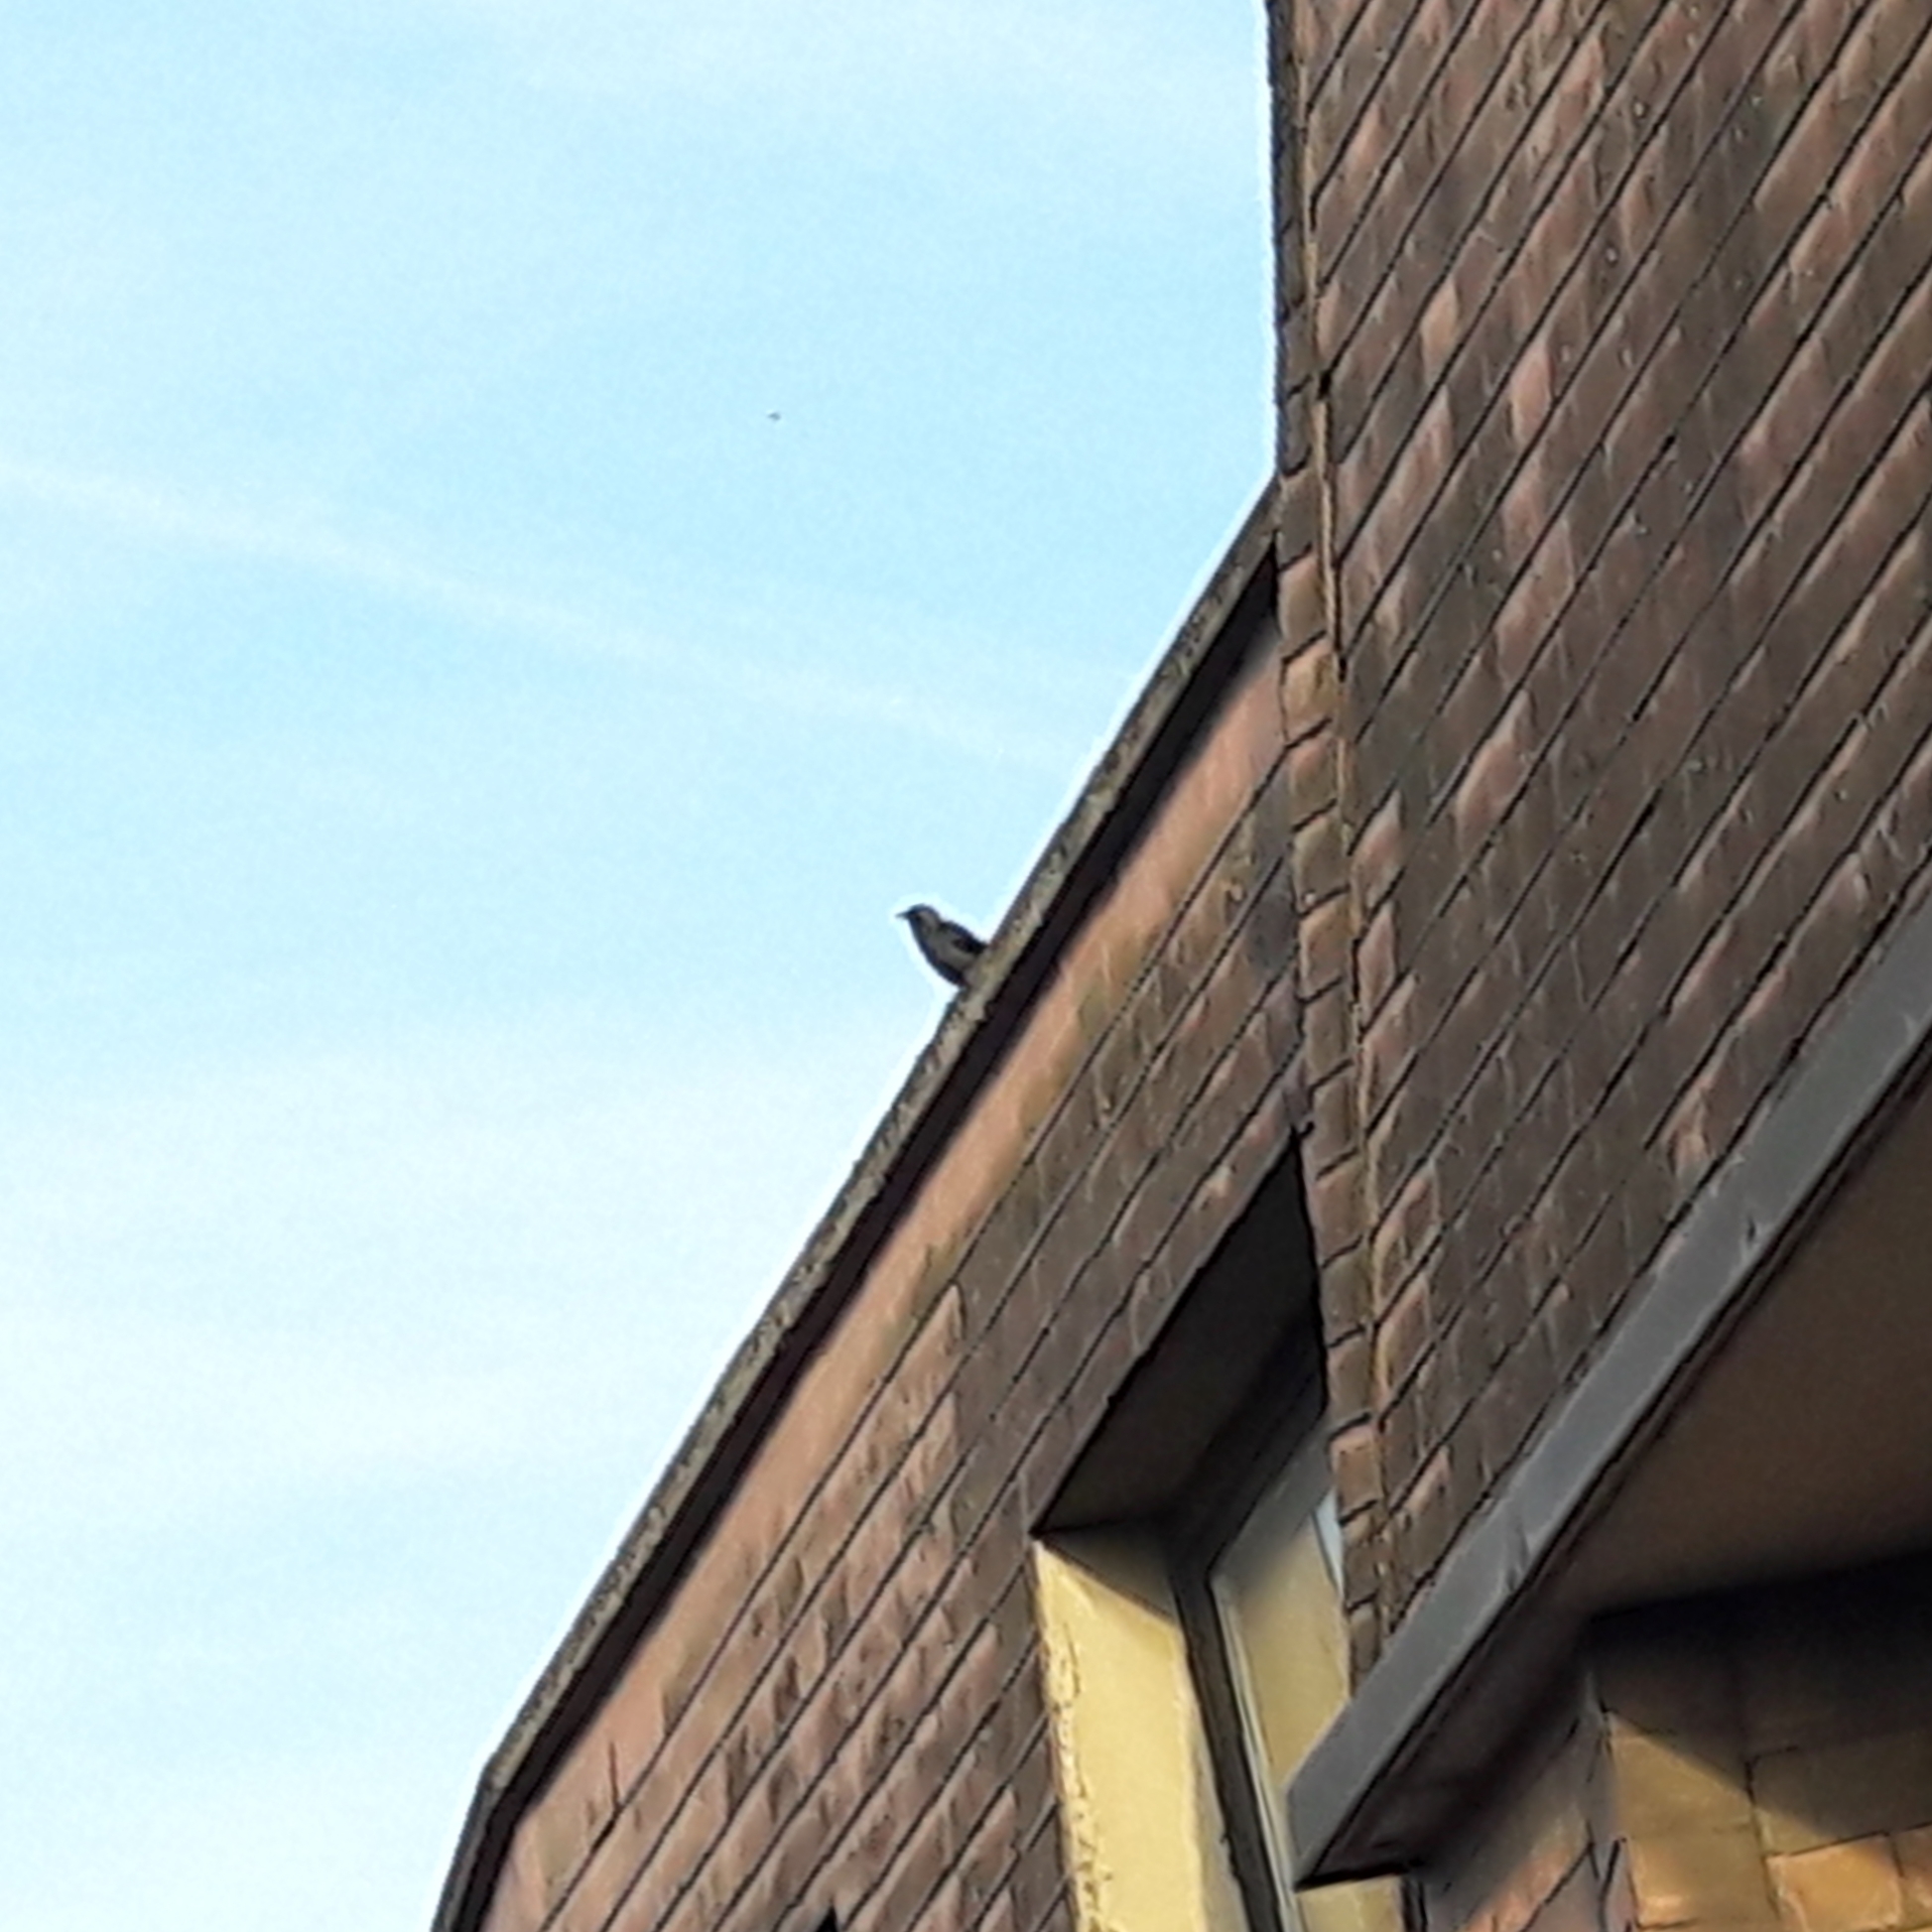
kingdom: Animalia
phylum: Chordata
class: Aves
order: Passeriformes
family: Corvidae
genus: Coloeus
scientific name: Coloeus monedula
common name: Western jackdaw
